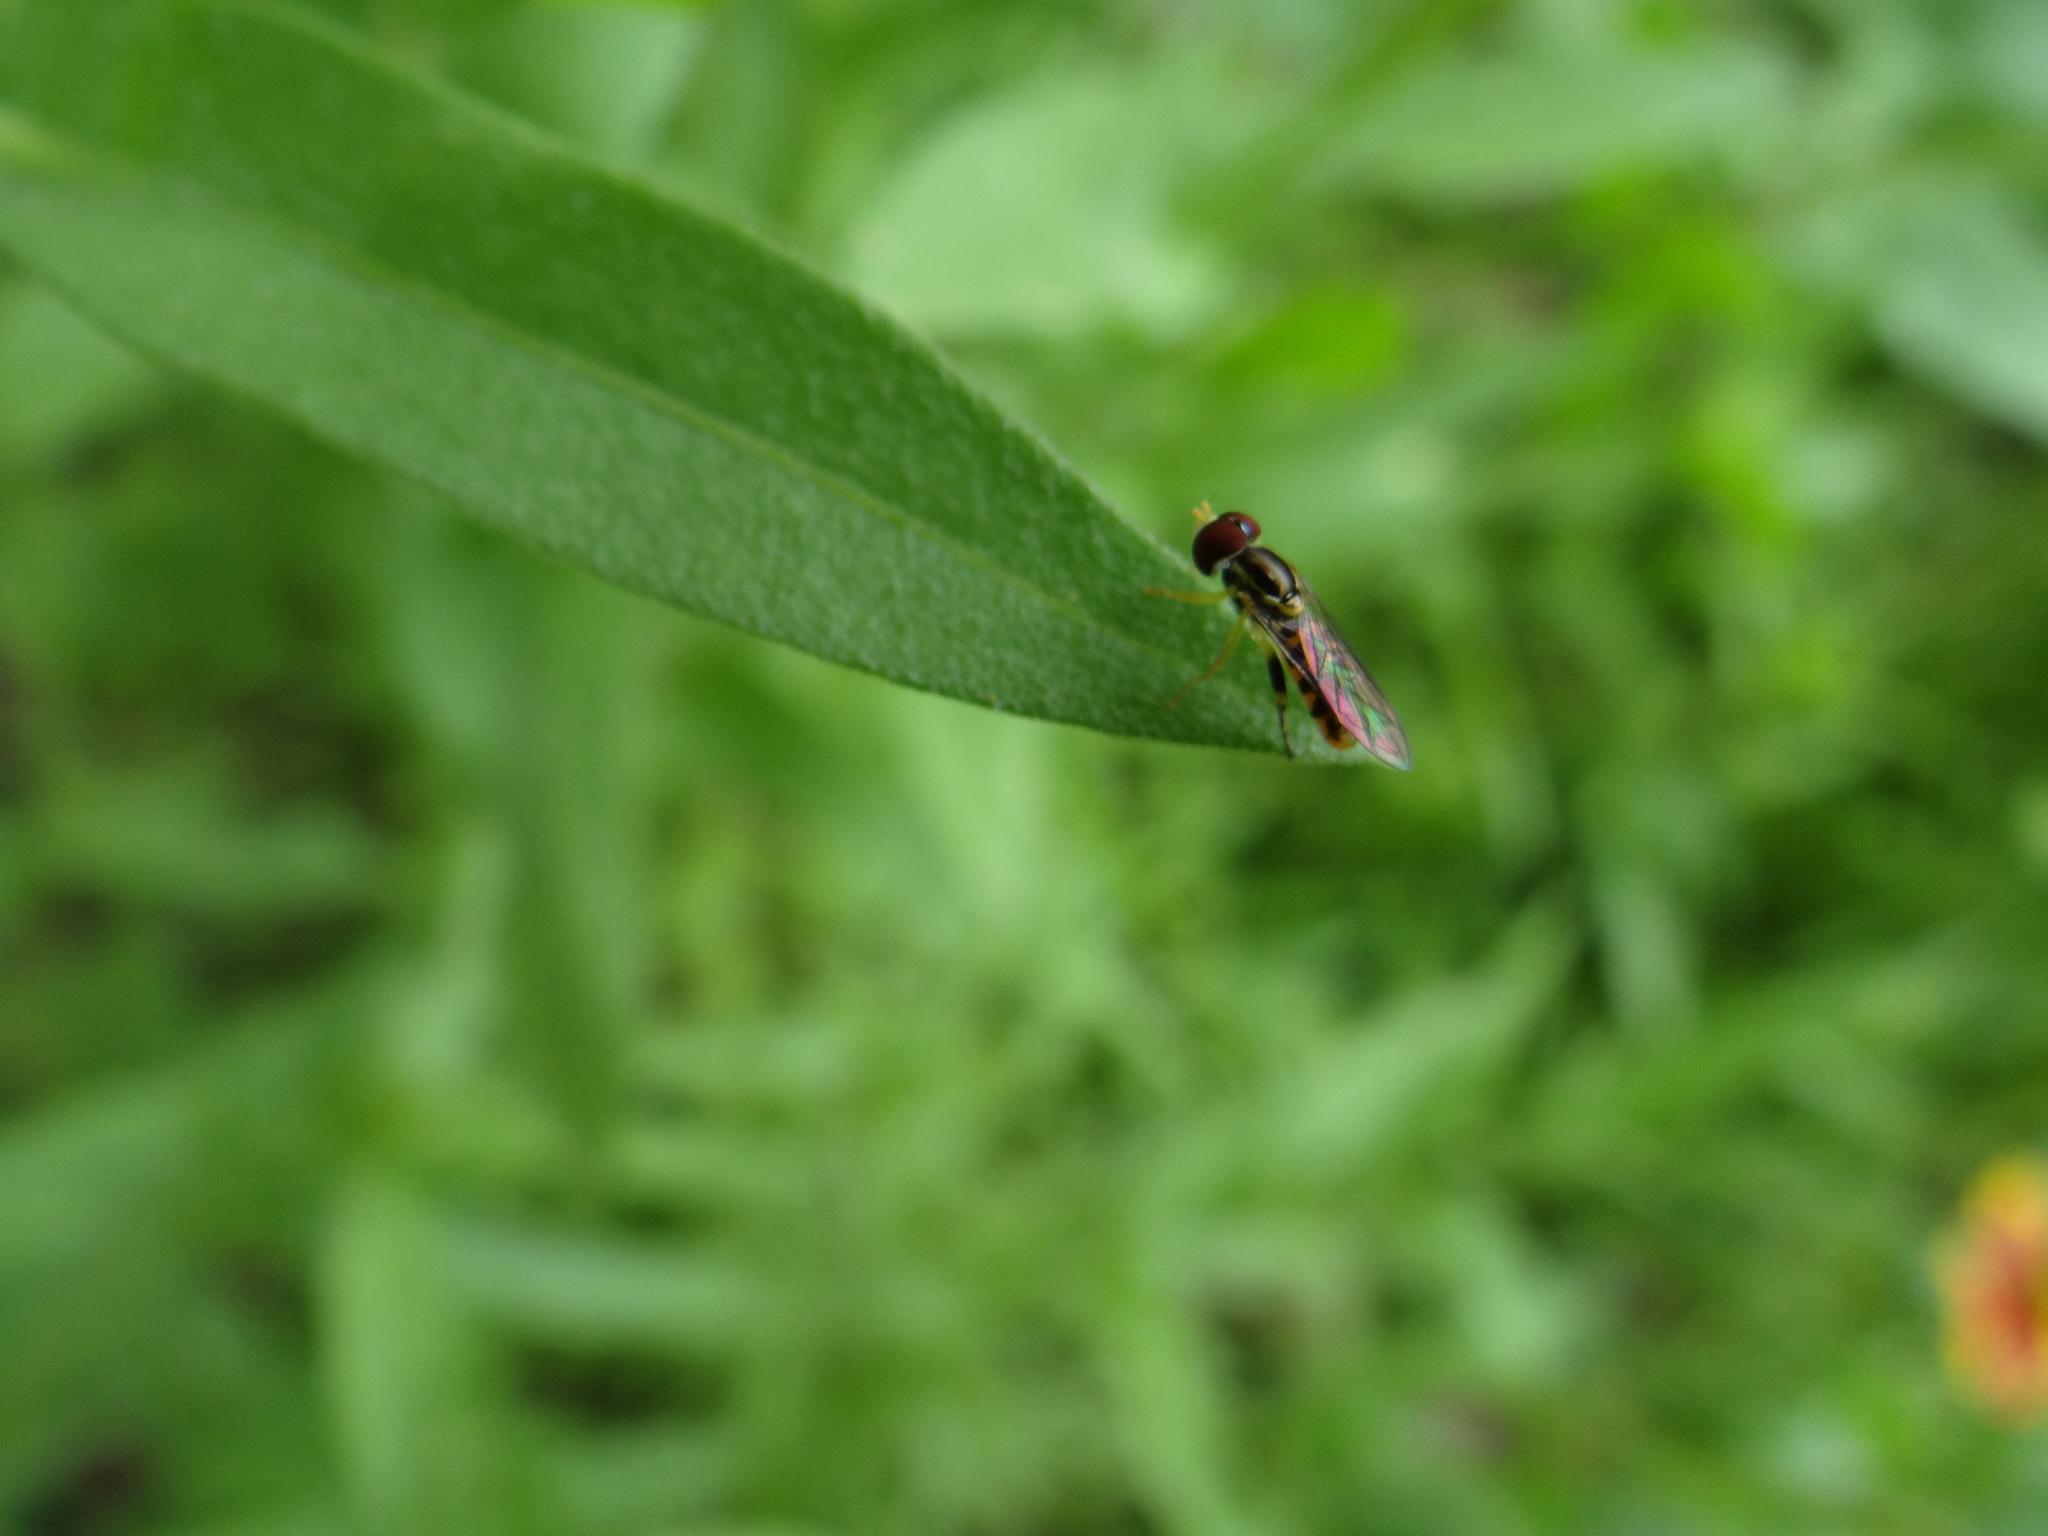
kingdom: Animalia
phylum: Arthropoda
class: Insecta
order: Diptera
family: Syrphidae
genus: Toxomerus
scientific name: Toxomerus geminatus
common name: Eastern calligrapher
